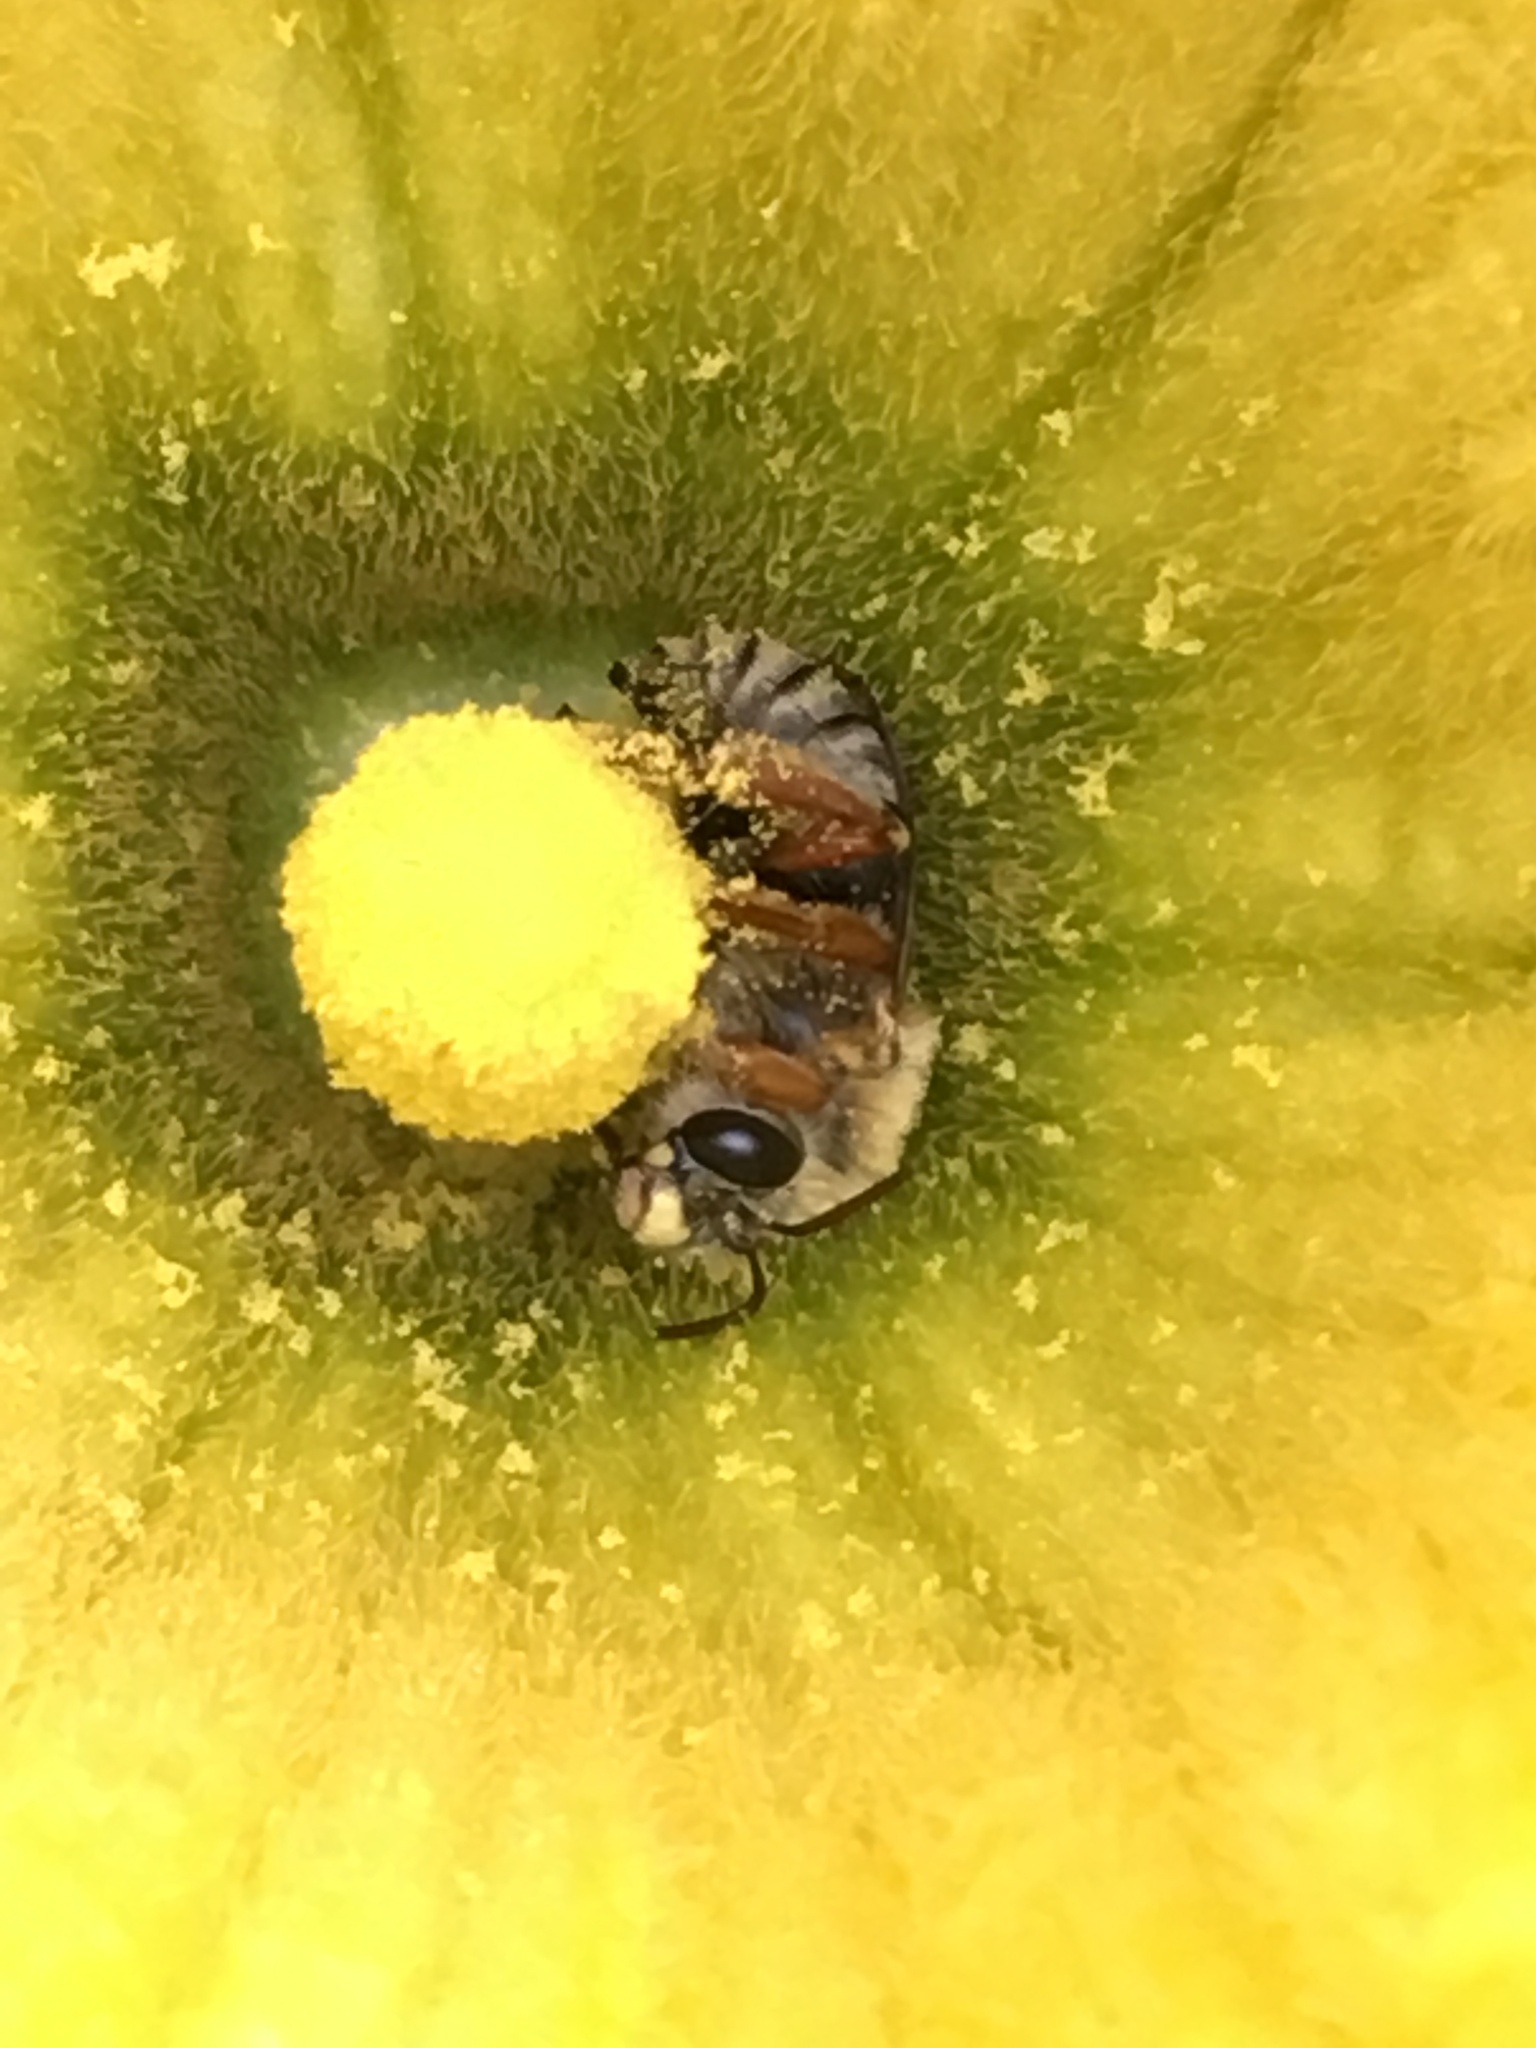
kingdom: Animalia
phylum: Arthropoda
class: Insecta
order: Hymenoptera
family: Apidae
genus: Xenoglossa
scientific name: Xenoglossa strenua
